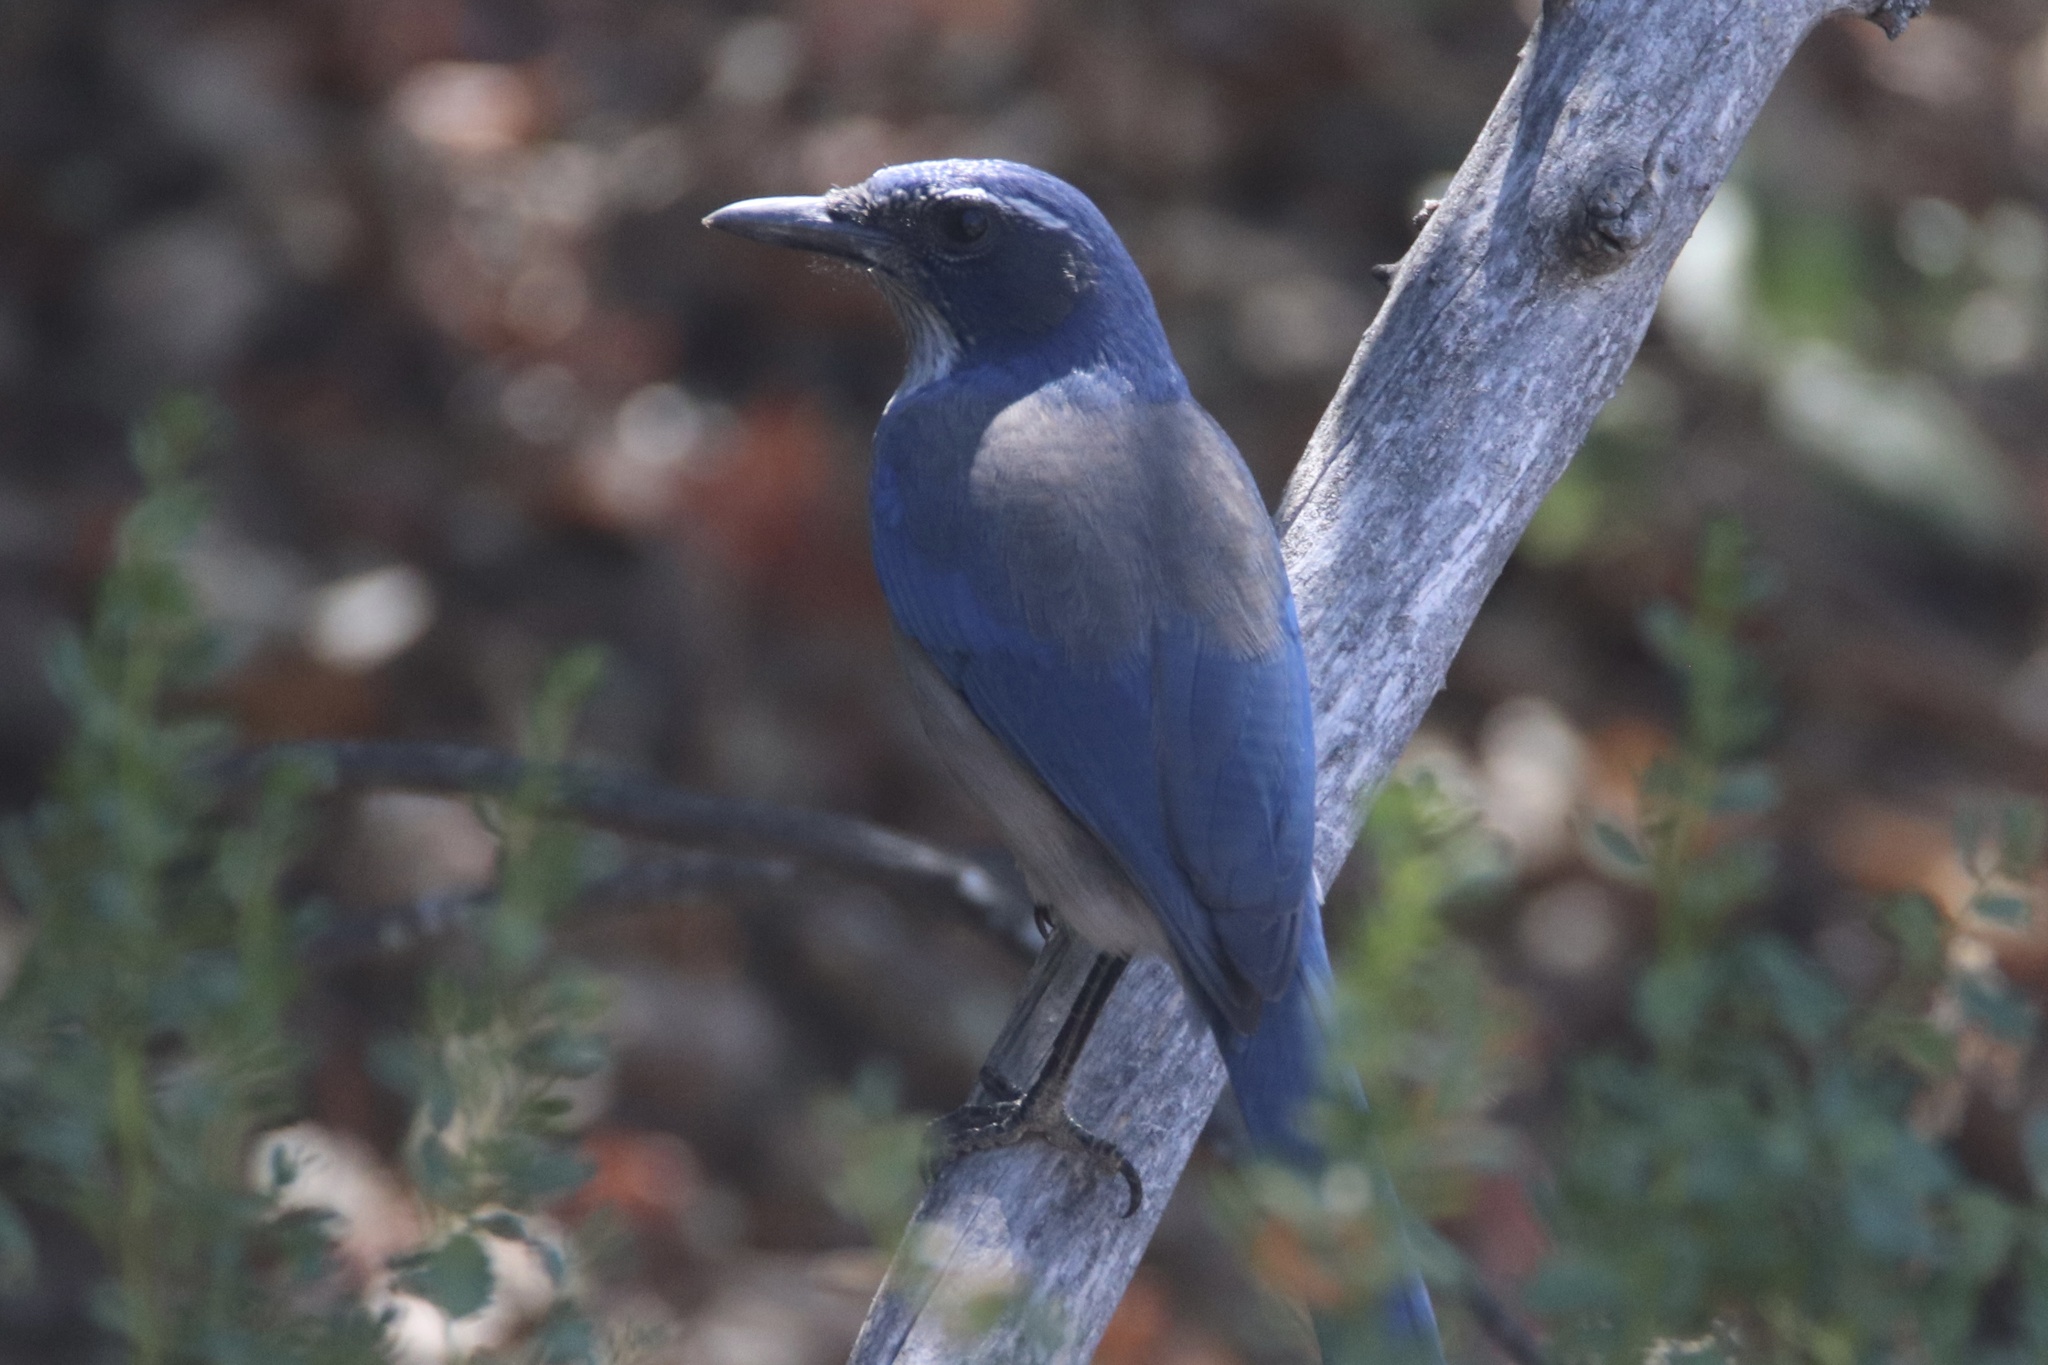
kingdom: Animalia
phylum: Chordata
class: Aves
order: Passeriformes
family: Corvidae
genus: Aphelocoma
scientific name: Aphelocoma californica
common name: California scrub-jay
